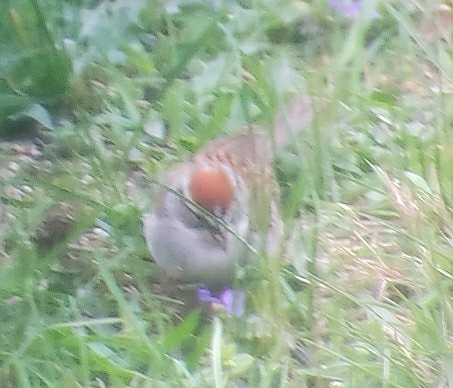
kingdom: Animalia
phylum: Chordata
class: Aves
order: Passeriformes
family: Passerellidae
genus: Spizella
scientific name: Spizella passerina
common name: Chipping sparrow
